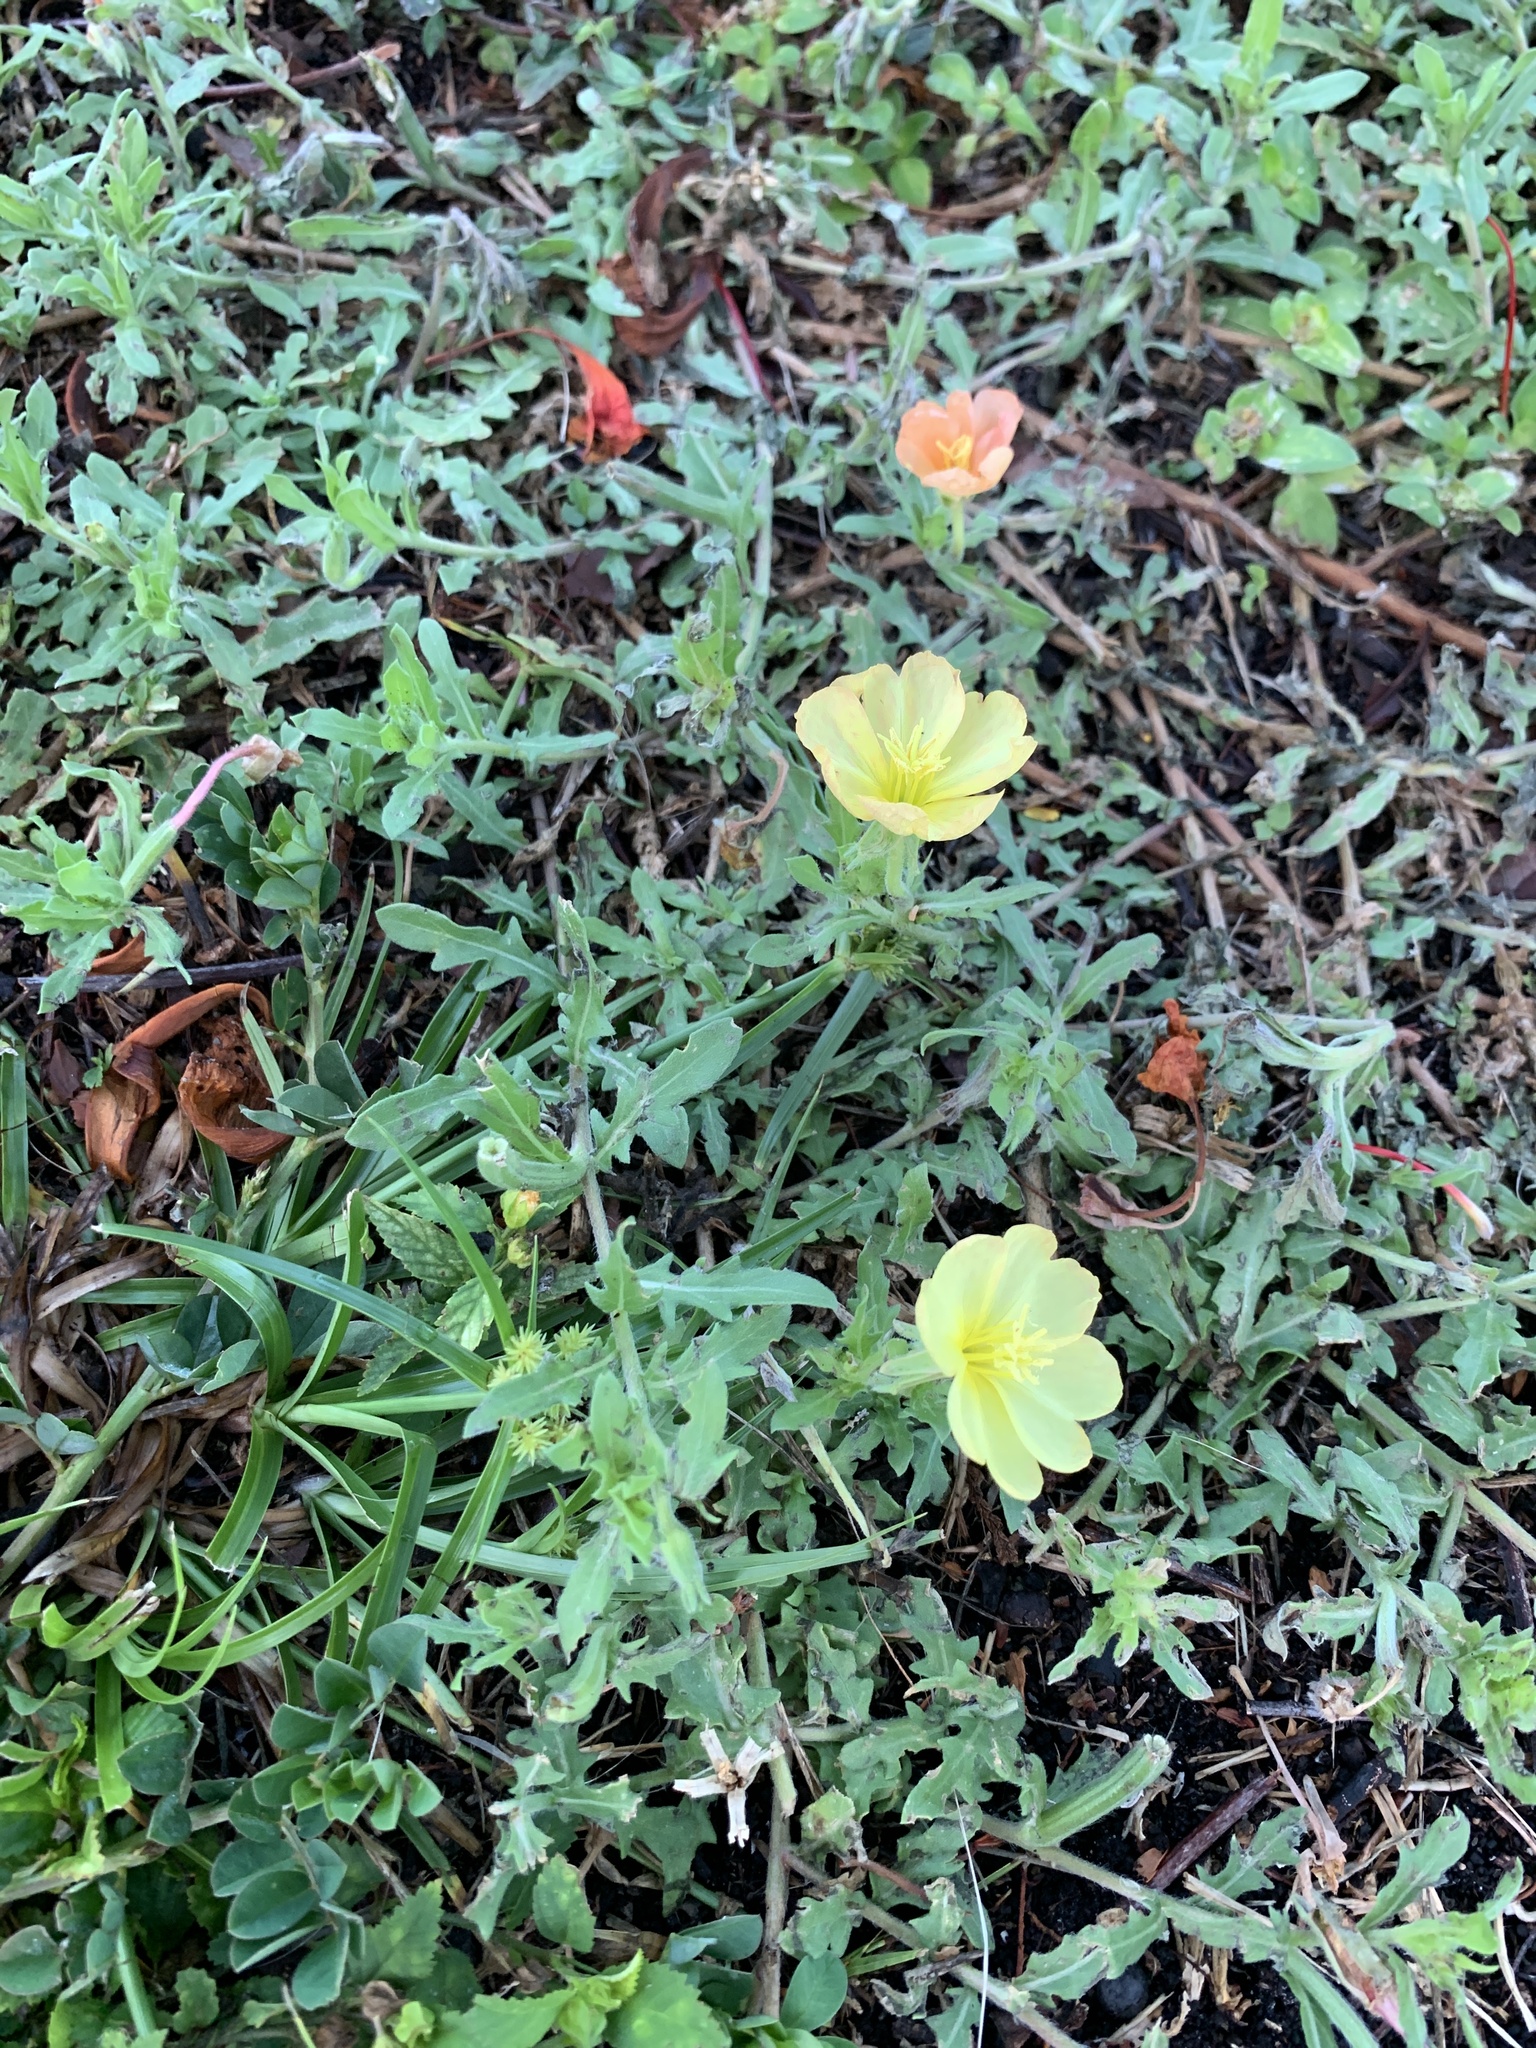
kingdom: Plantae
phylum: Tracheophyta
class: Magnoliopsida
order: Myrtales
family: Onagraceae
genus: Oenothera
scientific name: Oenothera laciniata
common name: Cut-leaved evening-primrose
